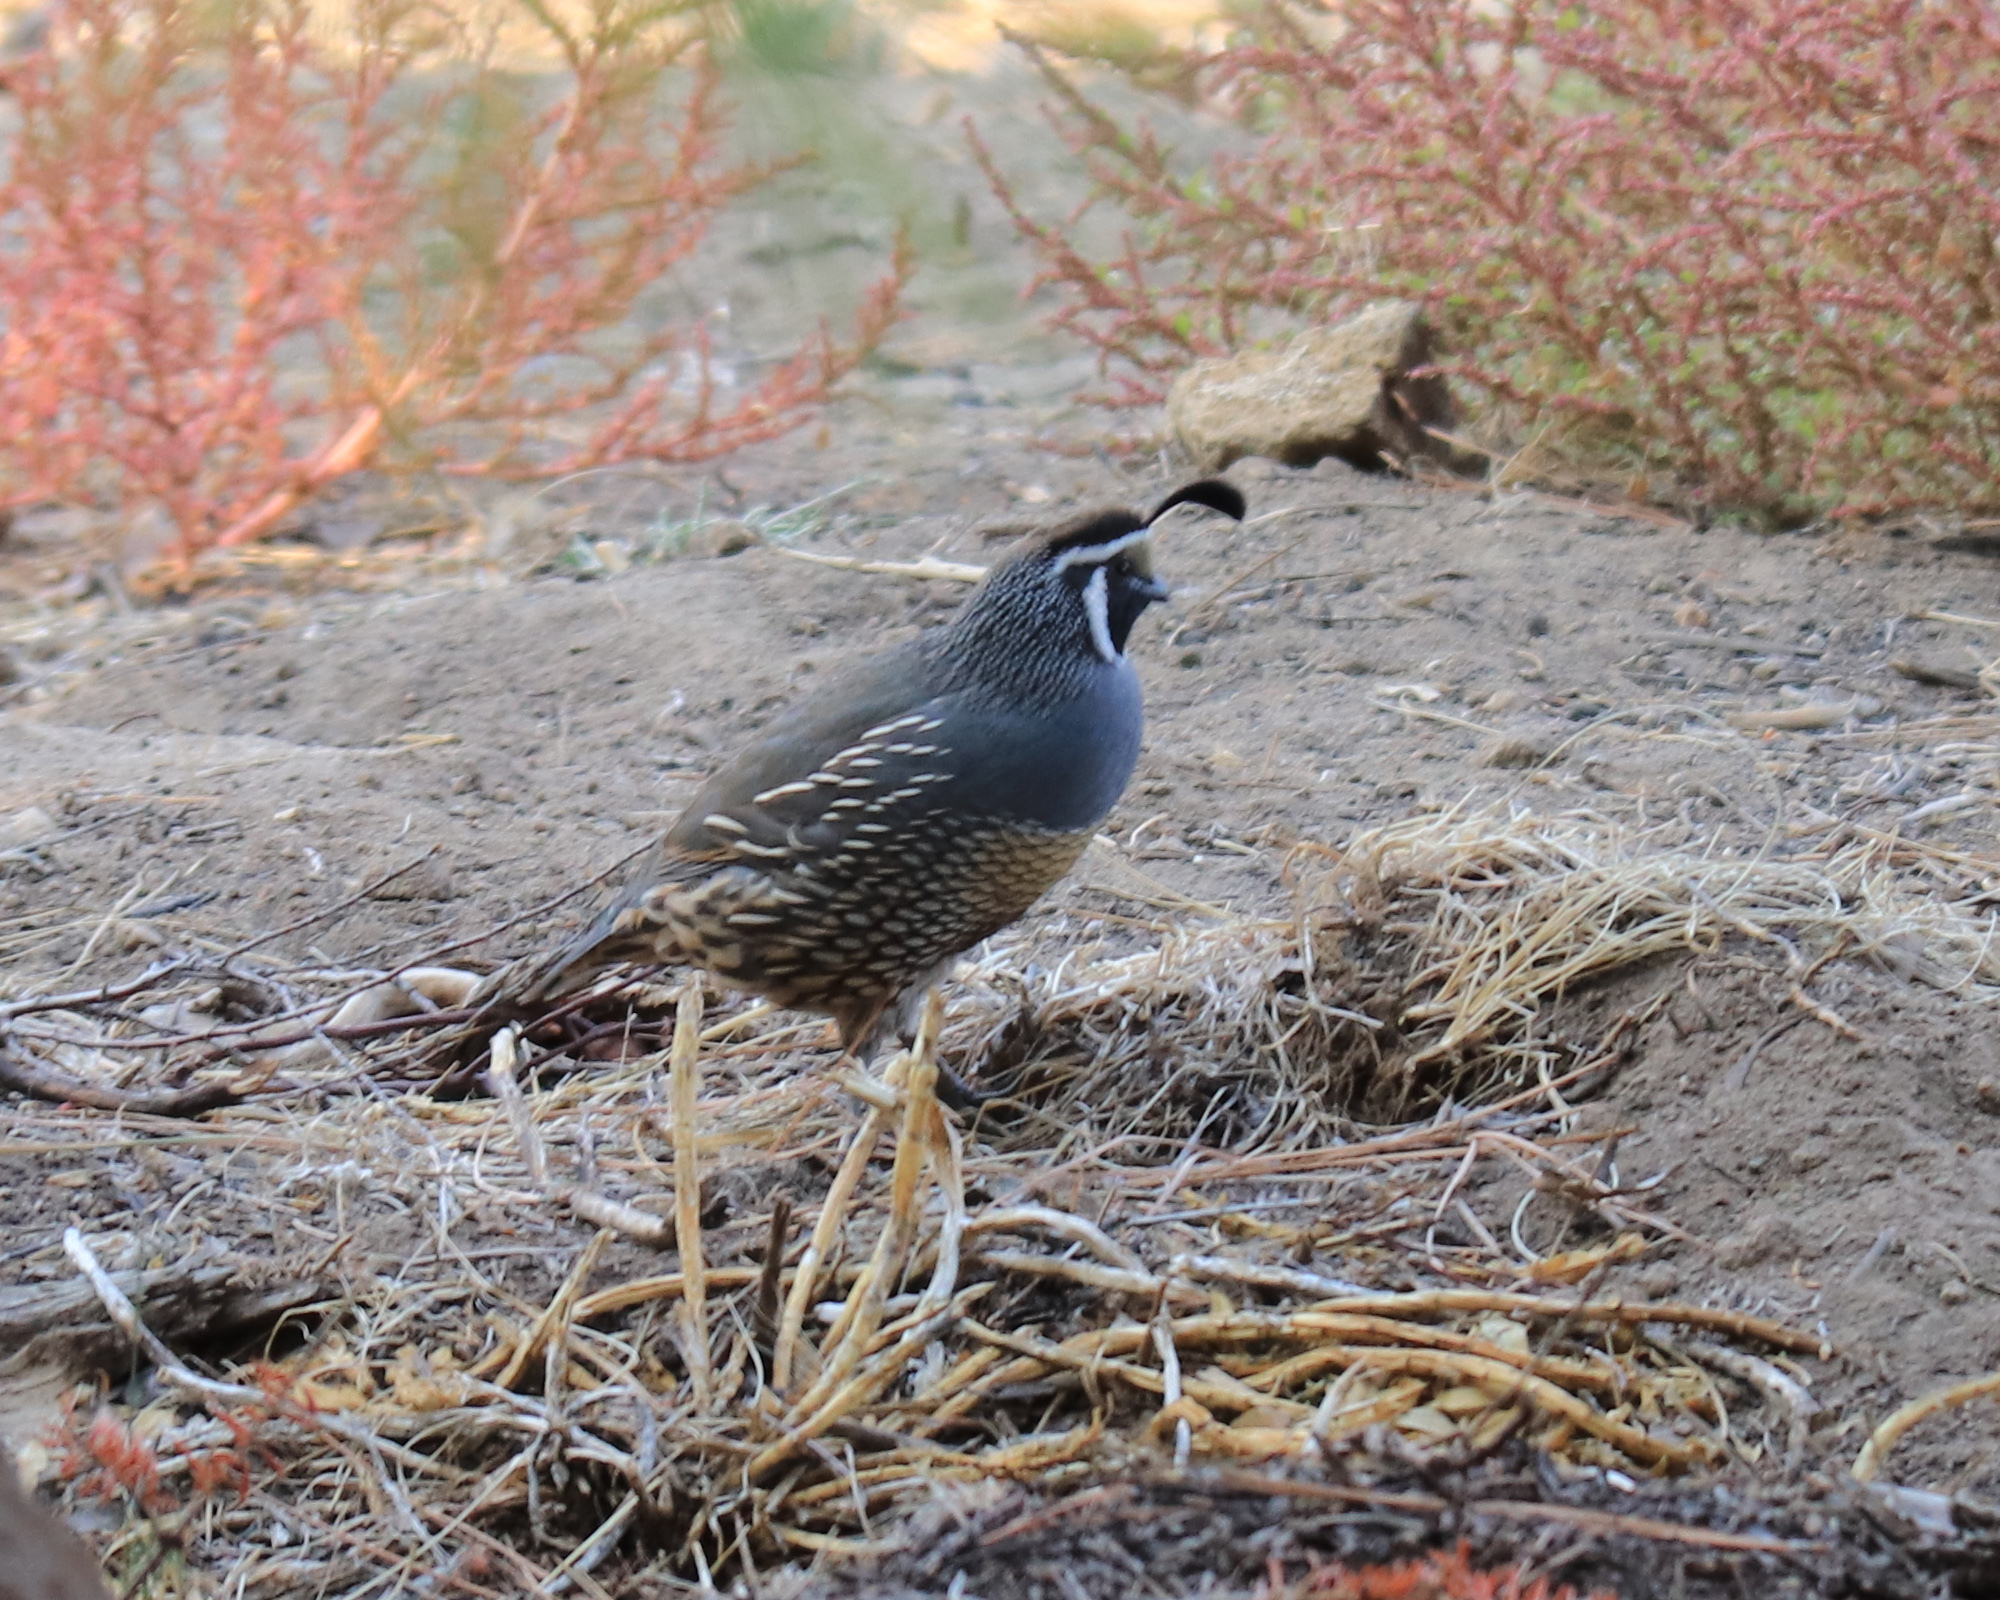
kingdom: Animalia
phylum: Chordata
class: Aves
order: Galliformes
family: Odontophoridae
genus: Callipepla
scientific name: Callipepla californica
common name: California quail
